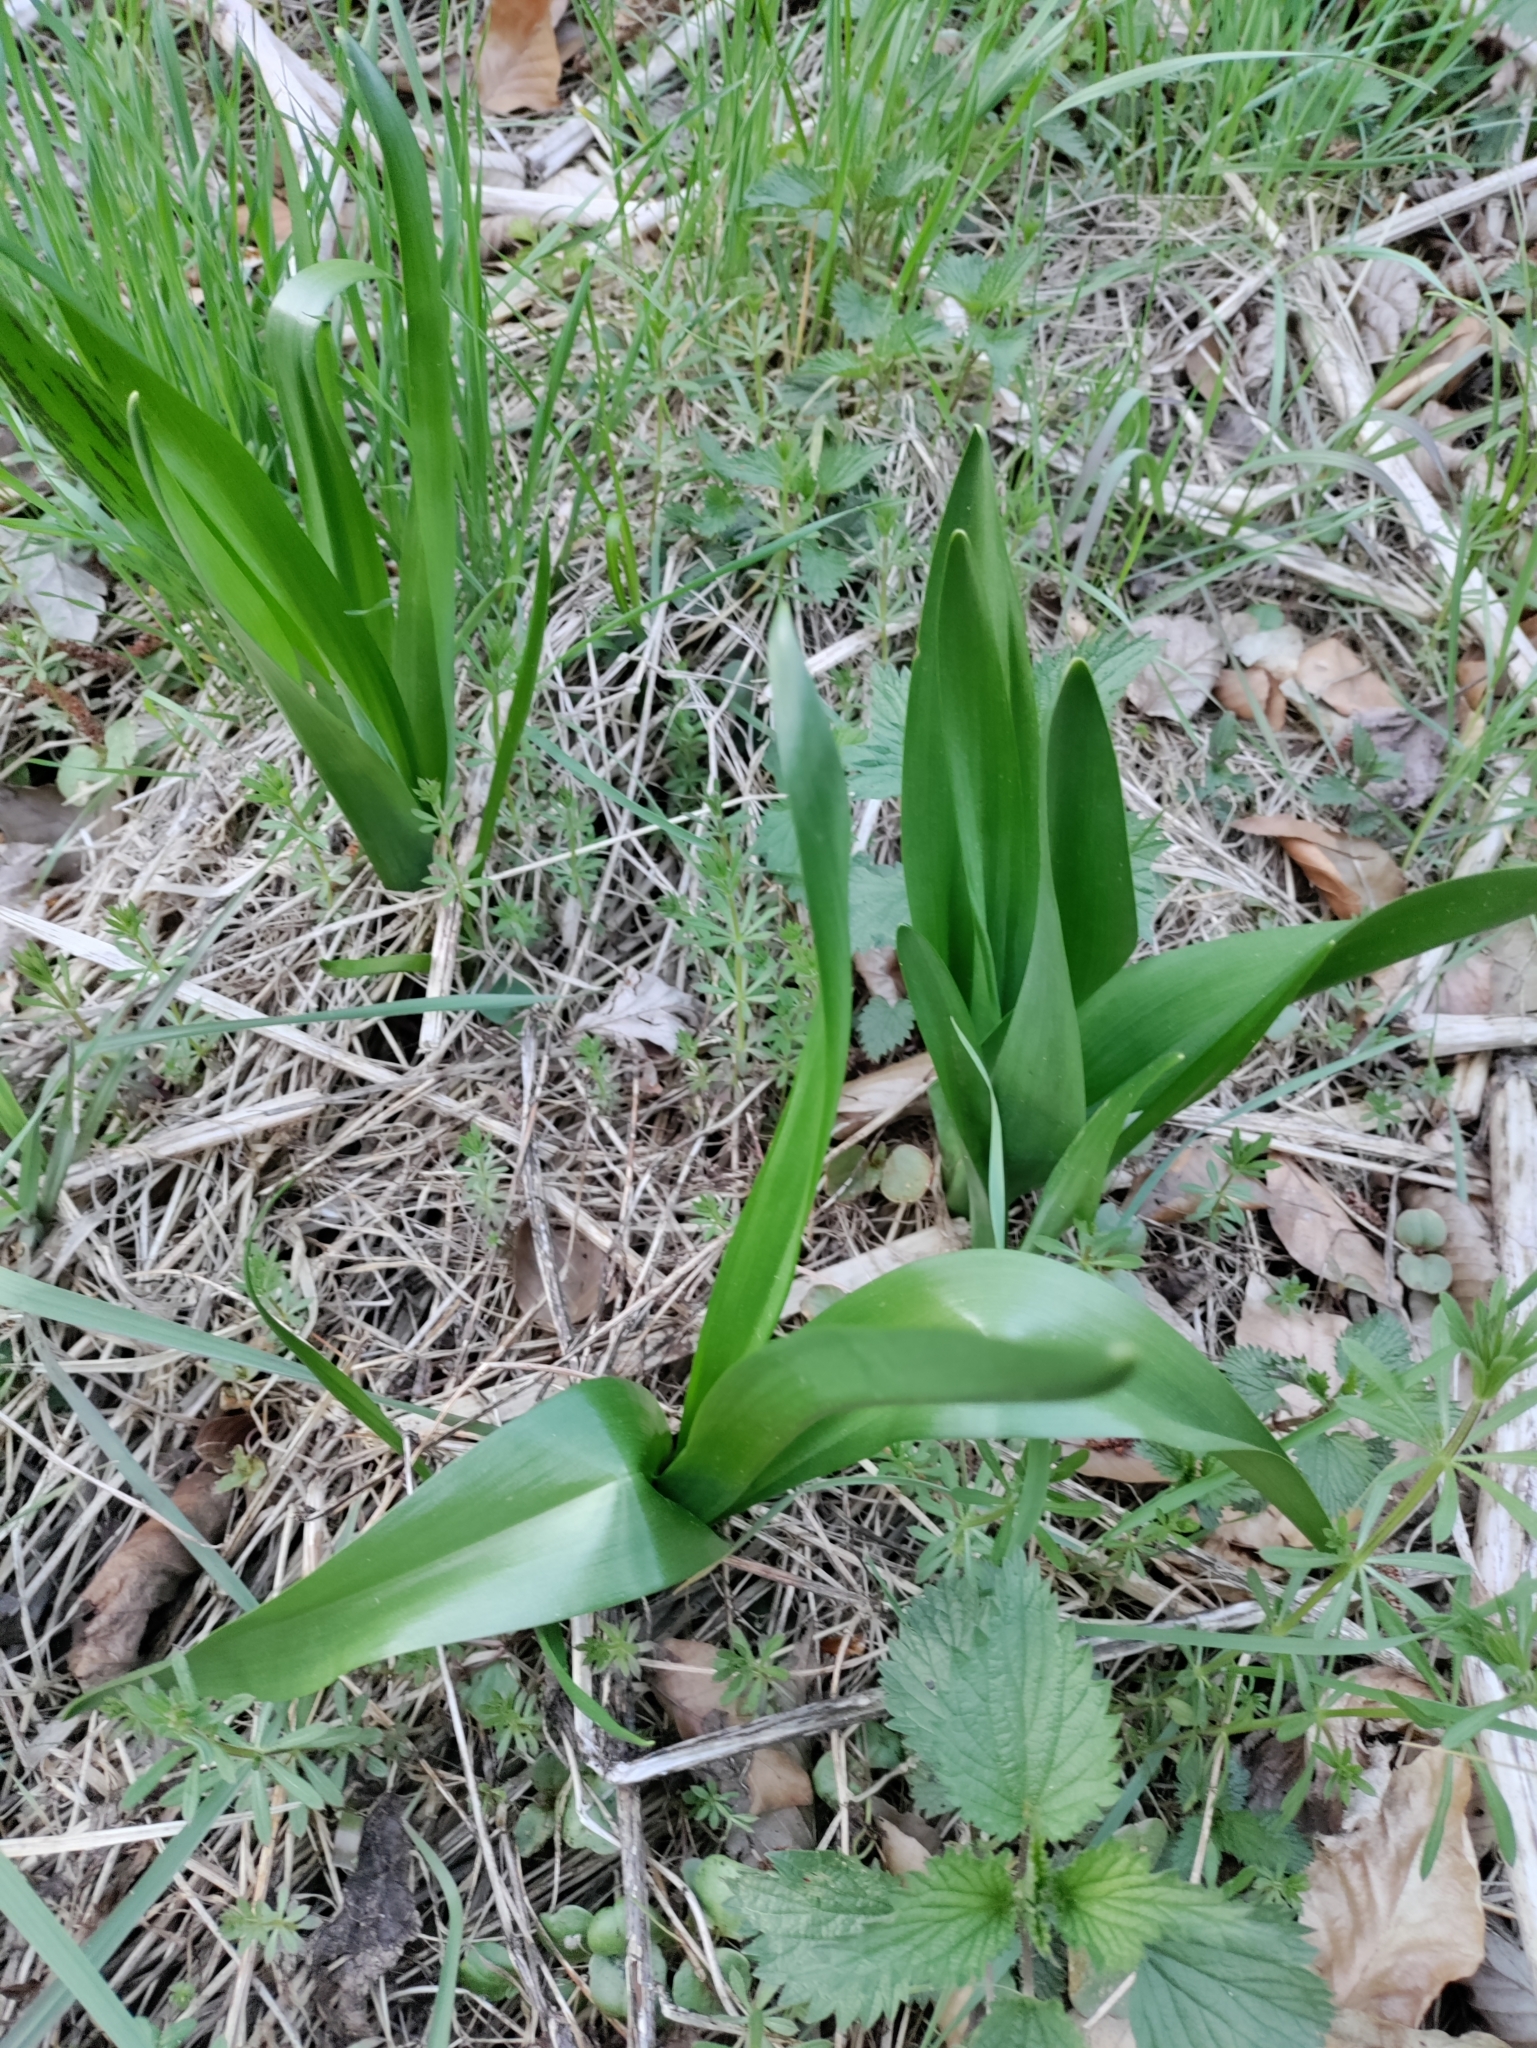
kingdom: Plantae
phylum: Tracheophyta
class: Liliopsida
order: Liliales
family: Colchicaceae
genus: Colchicum
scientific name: Colchicum autumnale
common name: Autumn crocus
